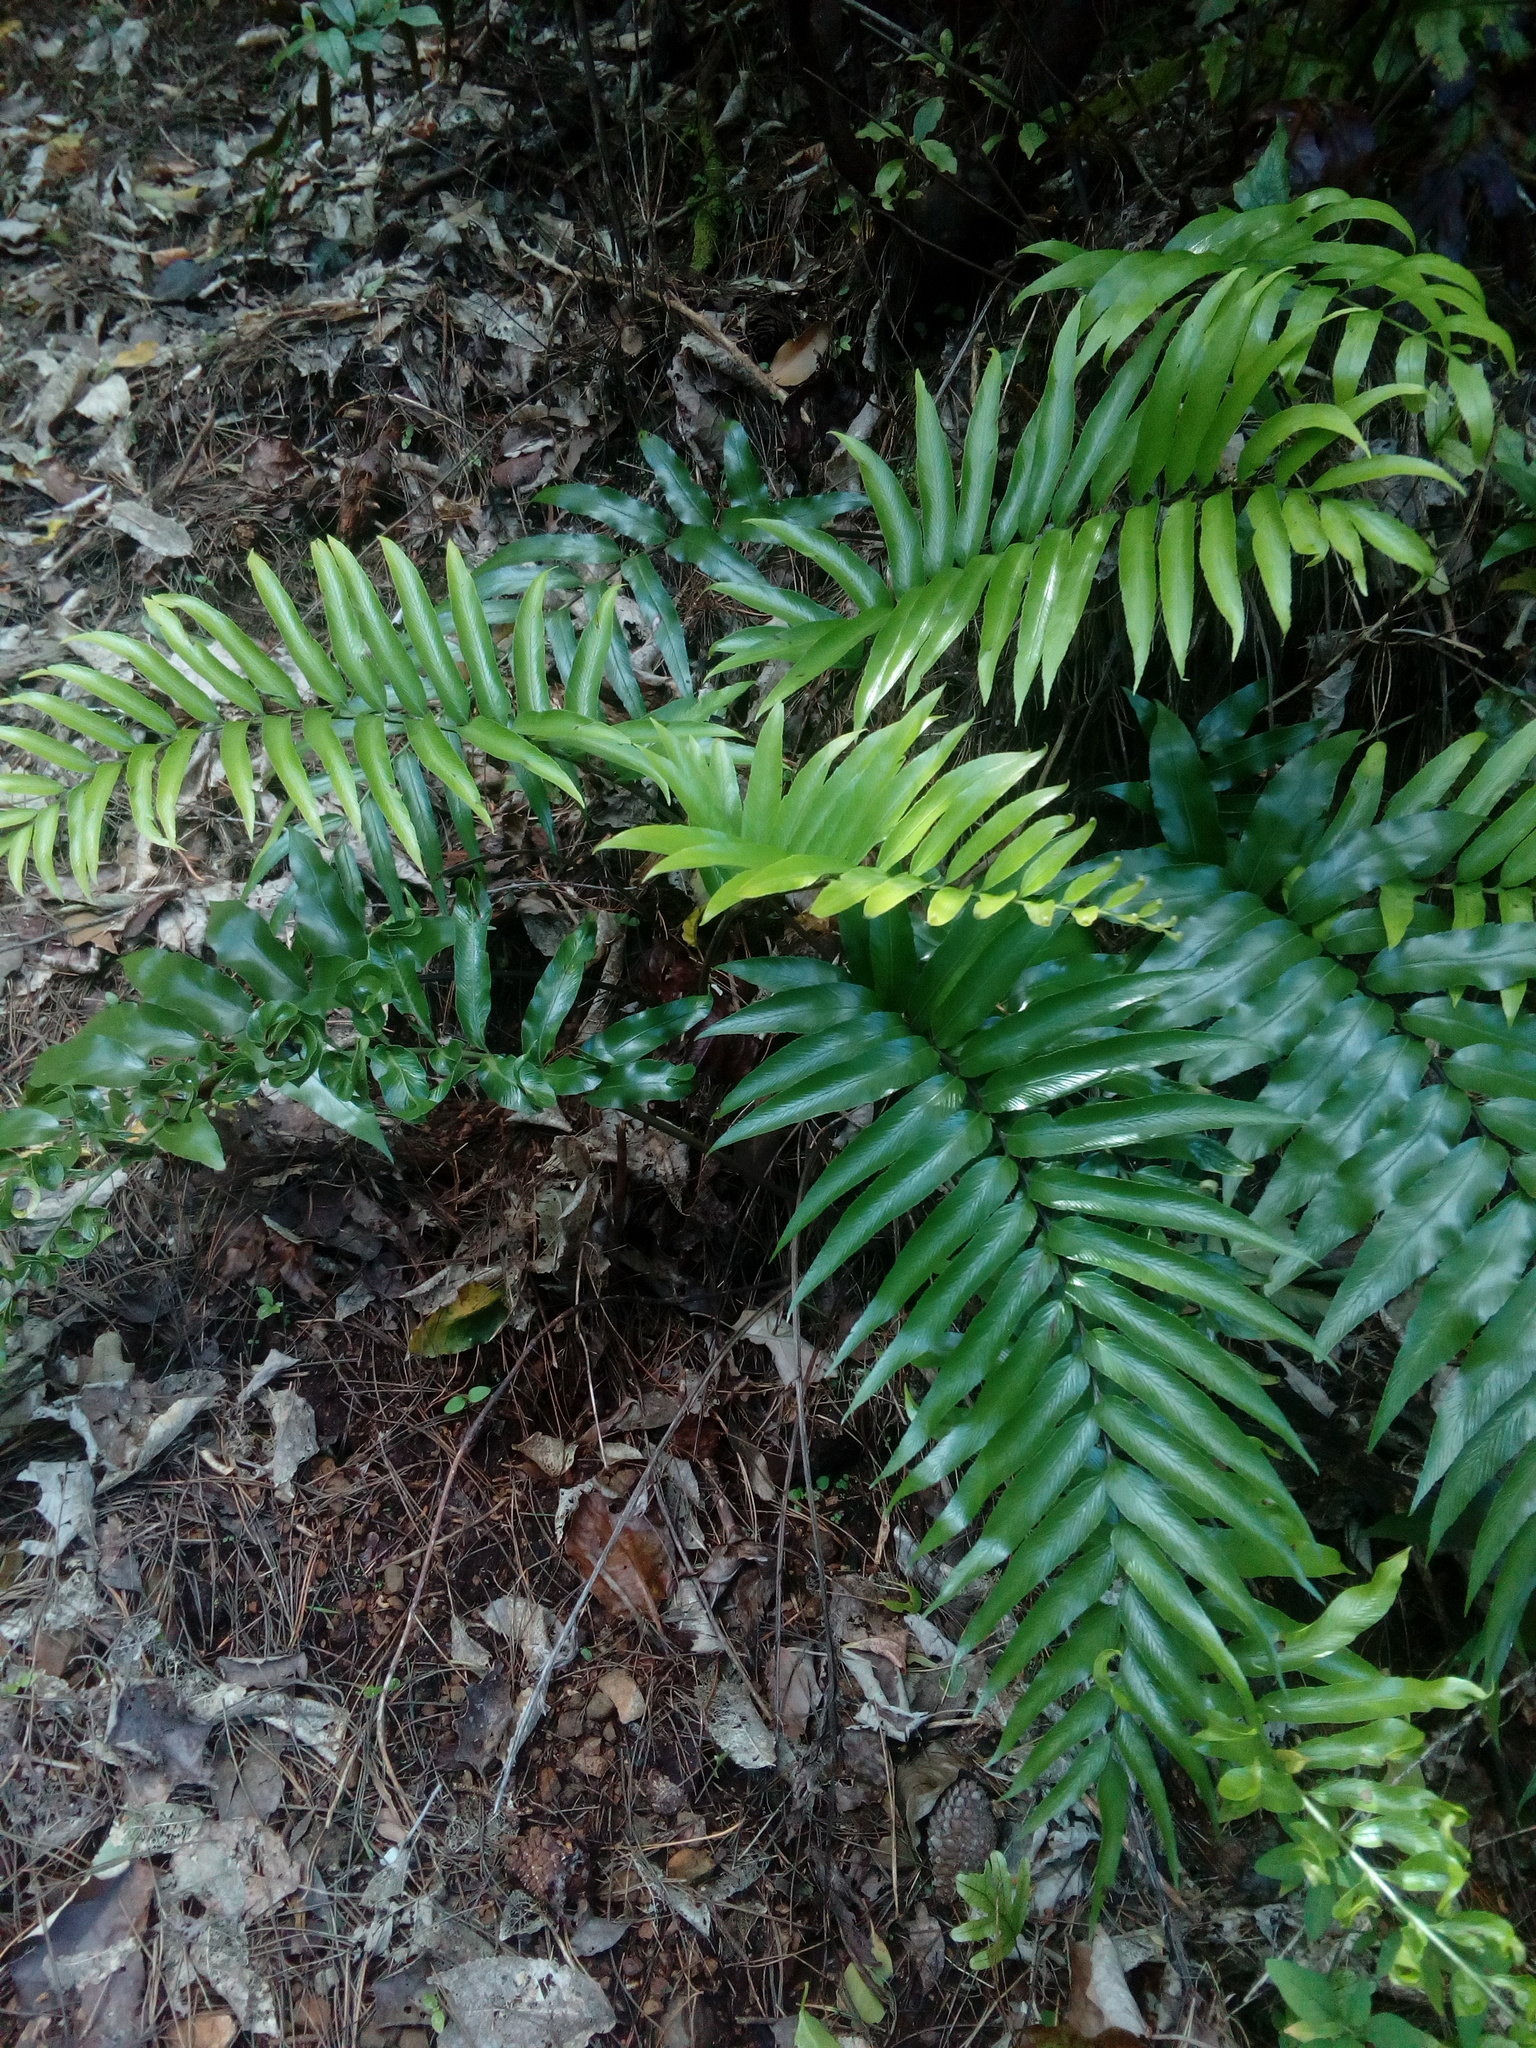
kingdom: Plantae
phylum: Tracheophyta
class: Polypodiopsida
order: Polypodiales
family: Aspleniaceae
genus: Asplenium
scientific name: Asplenium oblongifolium
